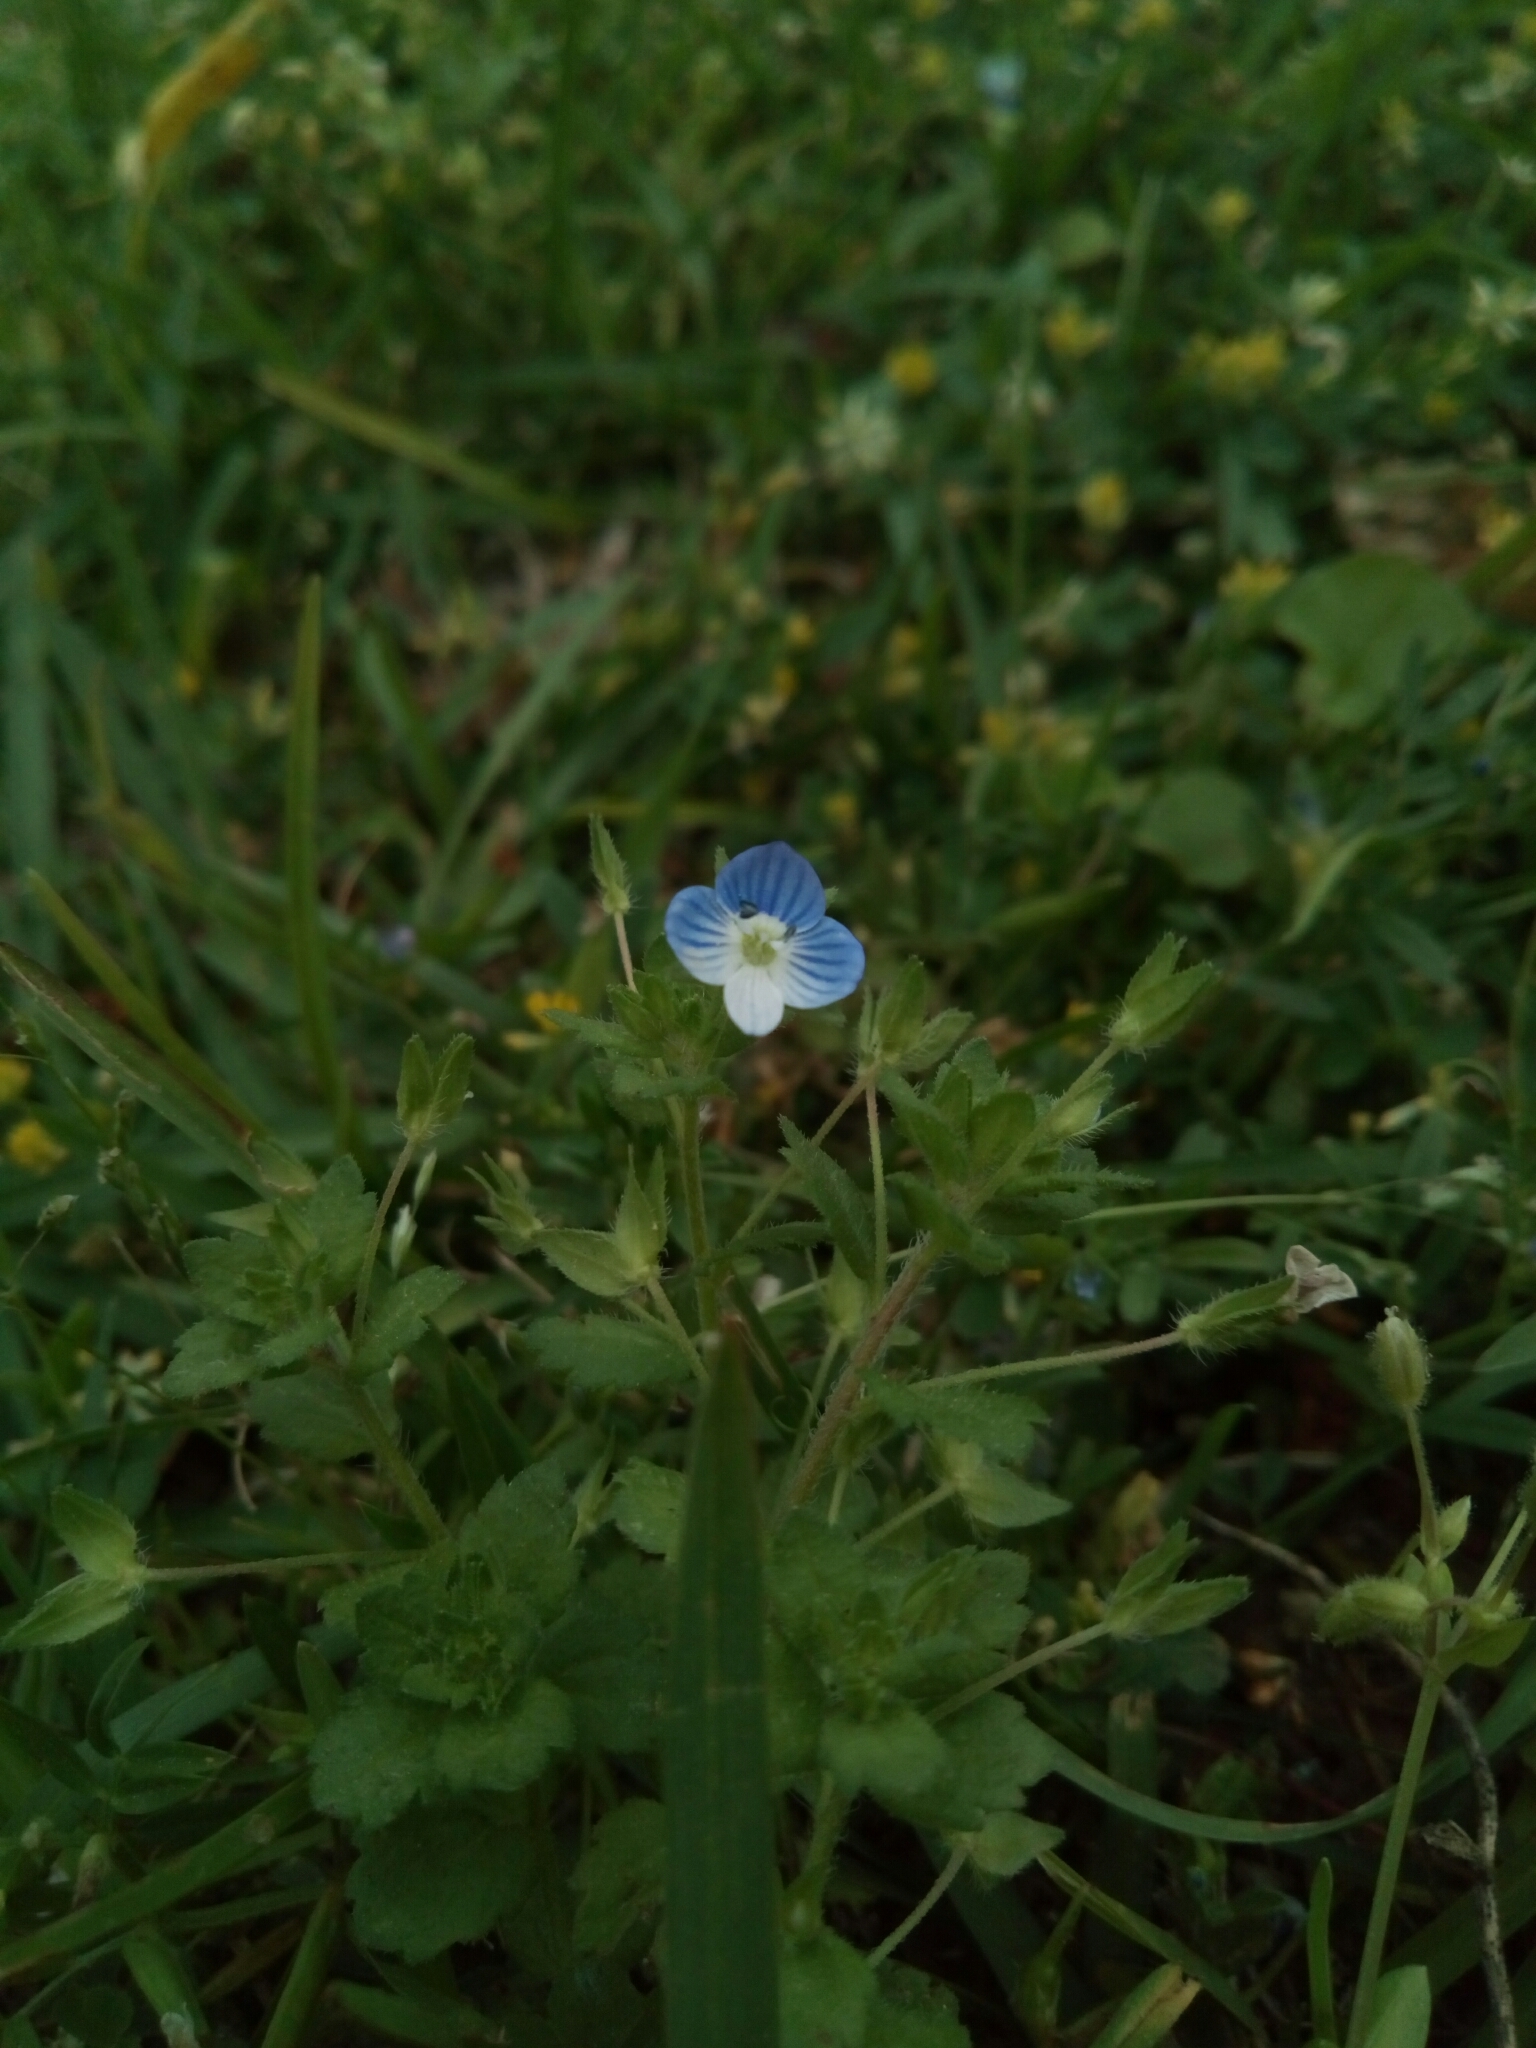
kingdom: Plantae
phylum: Tracheophyta
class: Magnoliopsida
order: Lamiales
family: Plantaginaceae
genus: Veronica
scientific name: Veronica persica
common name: Common field-speedwell
